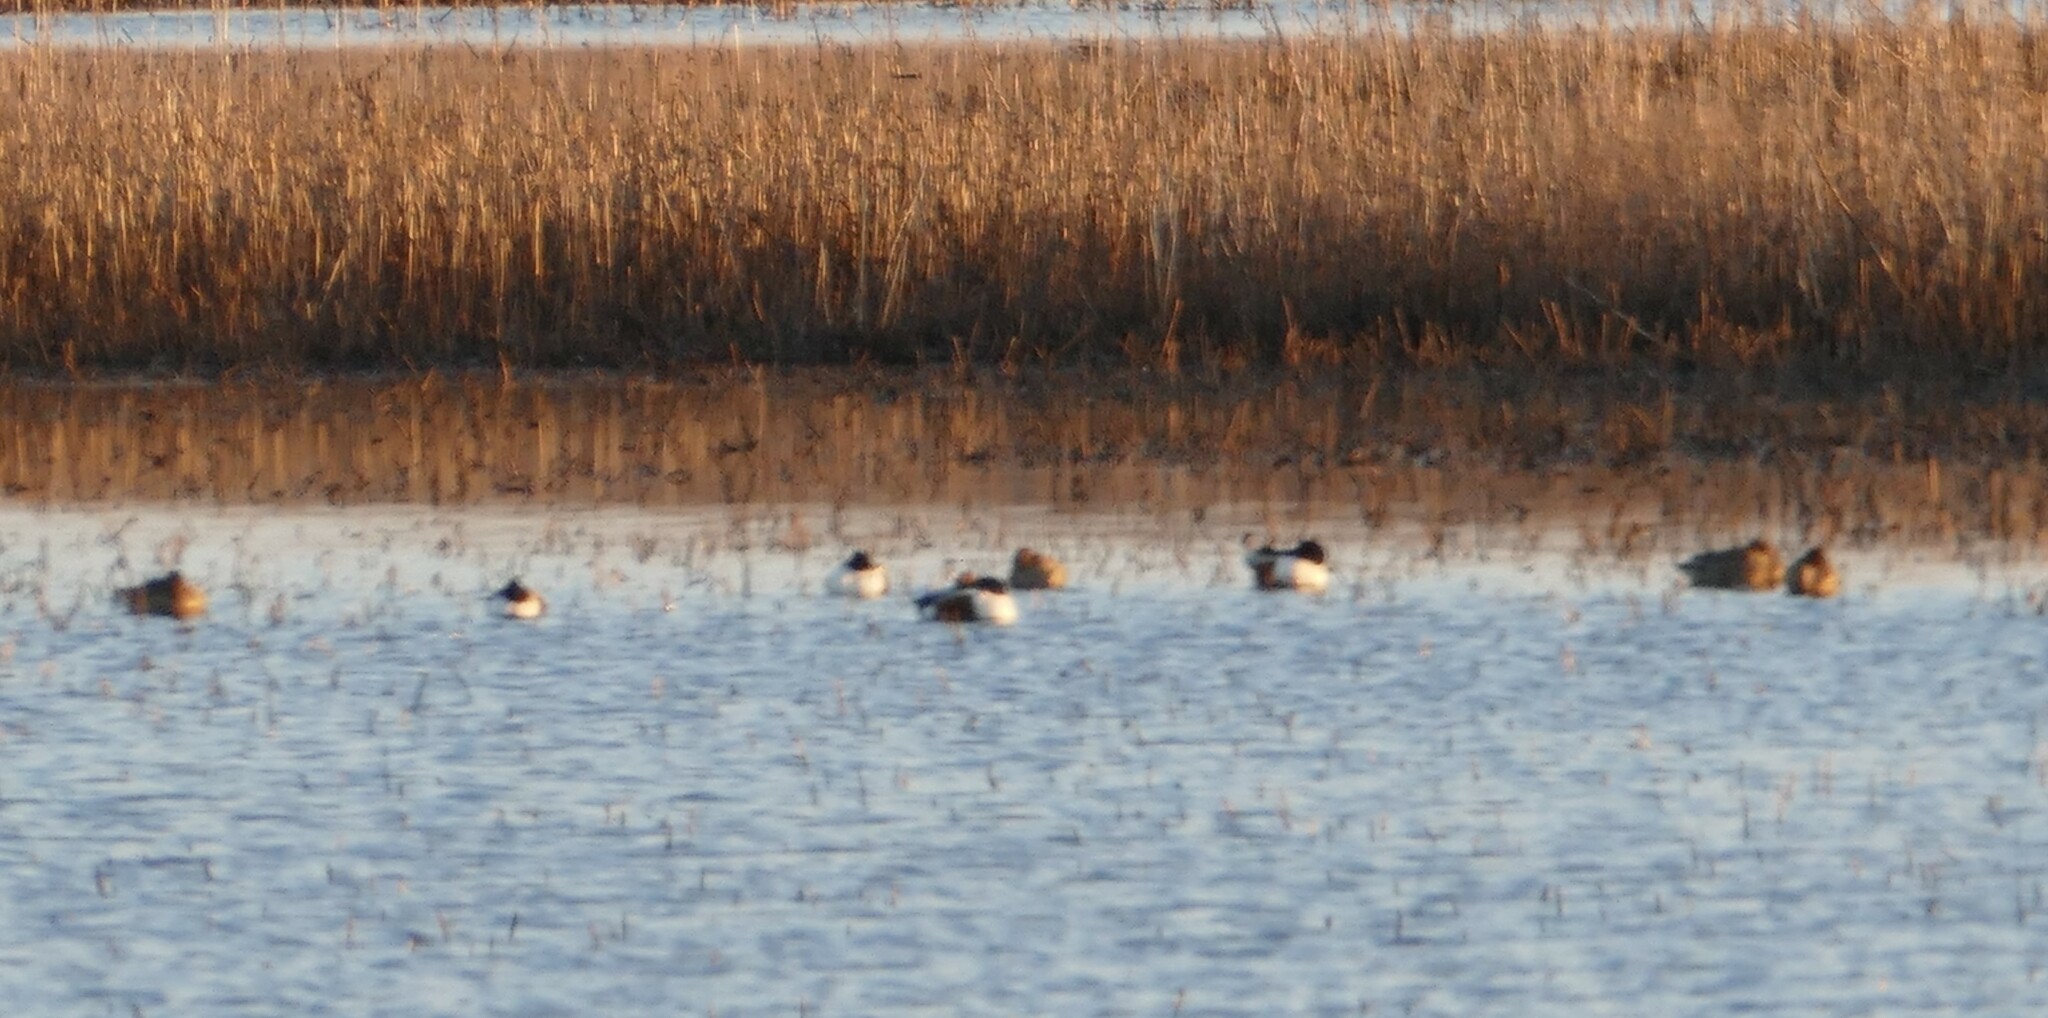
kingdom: Animalia
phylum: Chordata
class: Aves
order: Anseriformes
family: Anatidae
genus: Spatula
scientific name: Spatula clypeata
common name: Northern shoveler
